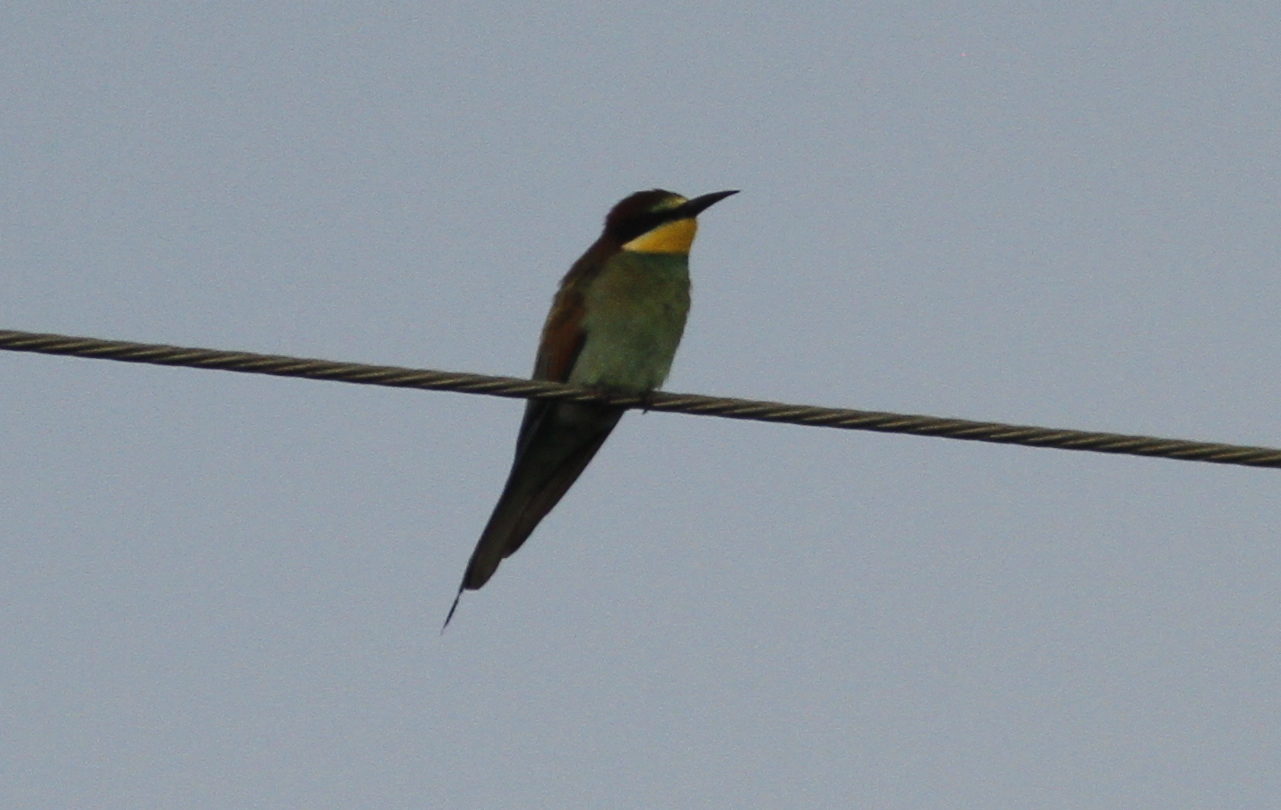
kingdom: Animalia
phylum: Chordata
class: Aves
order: Coraciiformes
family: Meropidae
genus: Merops
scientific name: Merops apiaster
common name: European bee-eater
